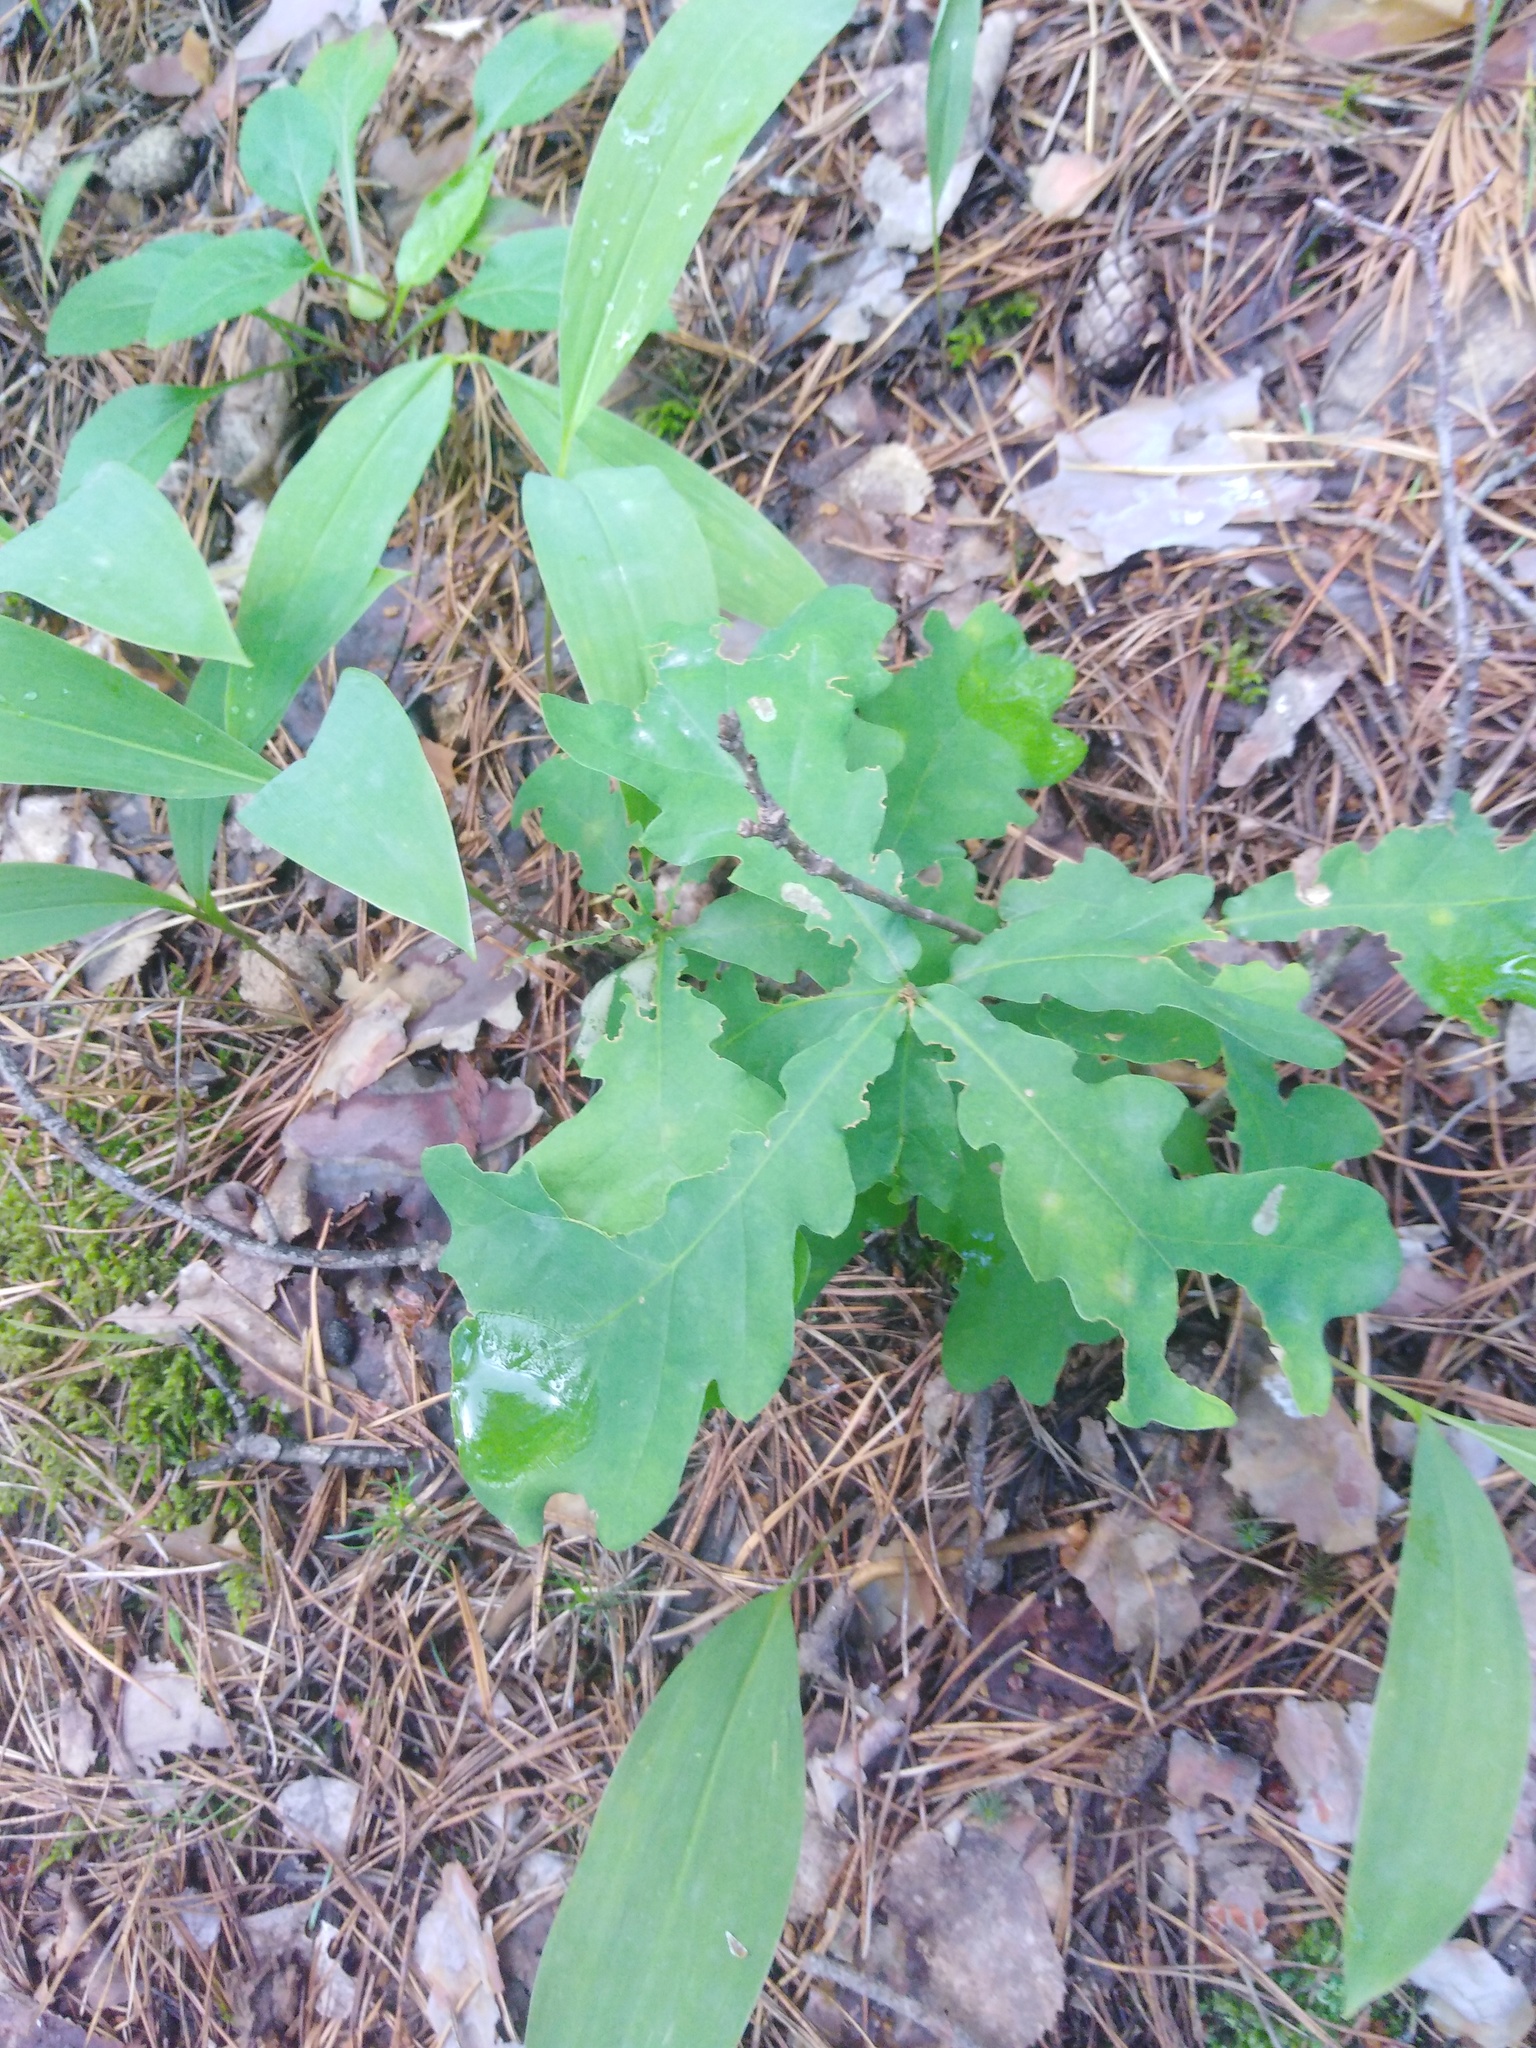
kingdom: Plantae
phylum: Tracheophyta
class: Magnoliopsida
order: Fagales
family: Fagaceae
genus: Quercus
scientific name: Quercus robur
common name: Pedunculate oak
